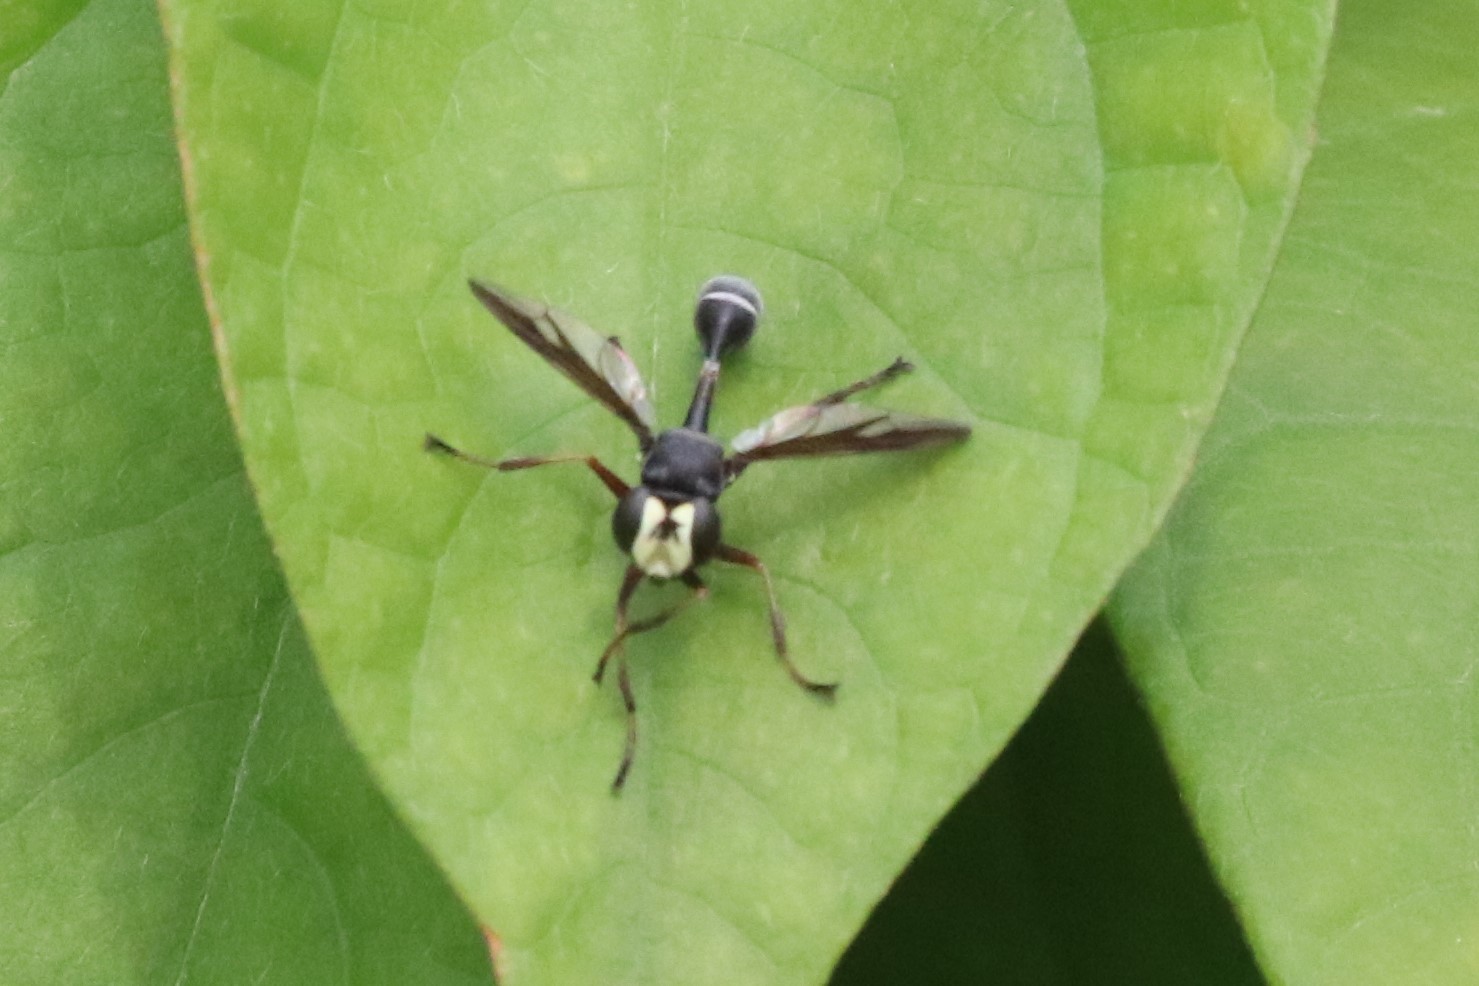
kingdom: Animalia
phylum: Arthropoda
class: Insecta
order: Diptera
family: Conopidae
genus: Physocephala
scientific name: Physocephala furcillata
